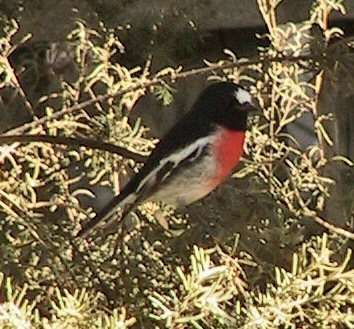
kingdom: Animalia
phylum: Chordata
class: Aves
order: Passeriformes
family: Petroicidae
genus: Petroica
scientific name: Petroica boodang
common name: Scarlet robin
